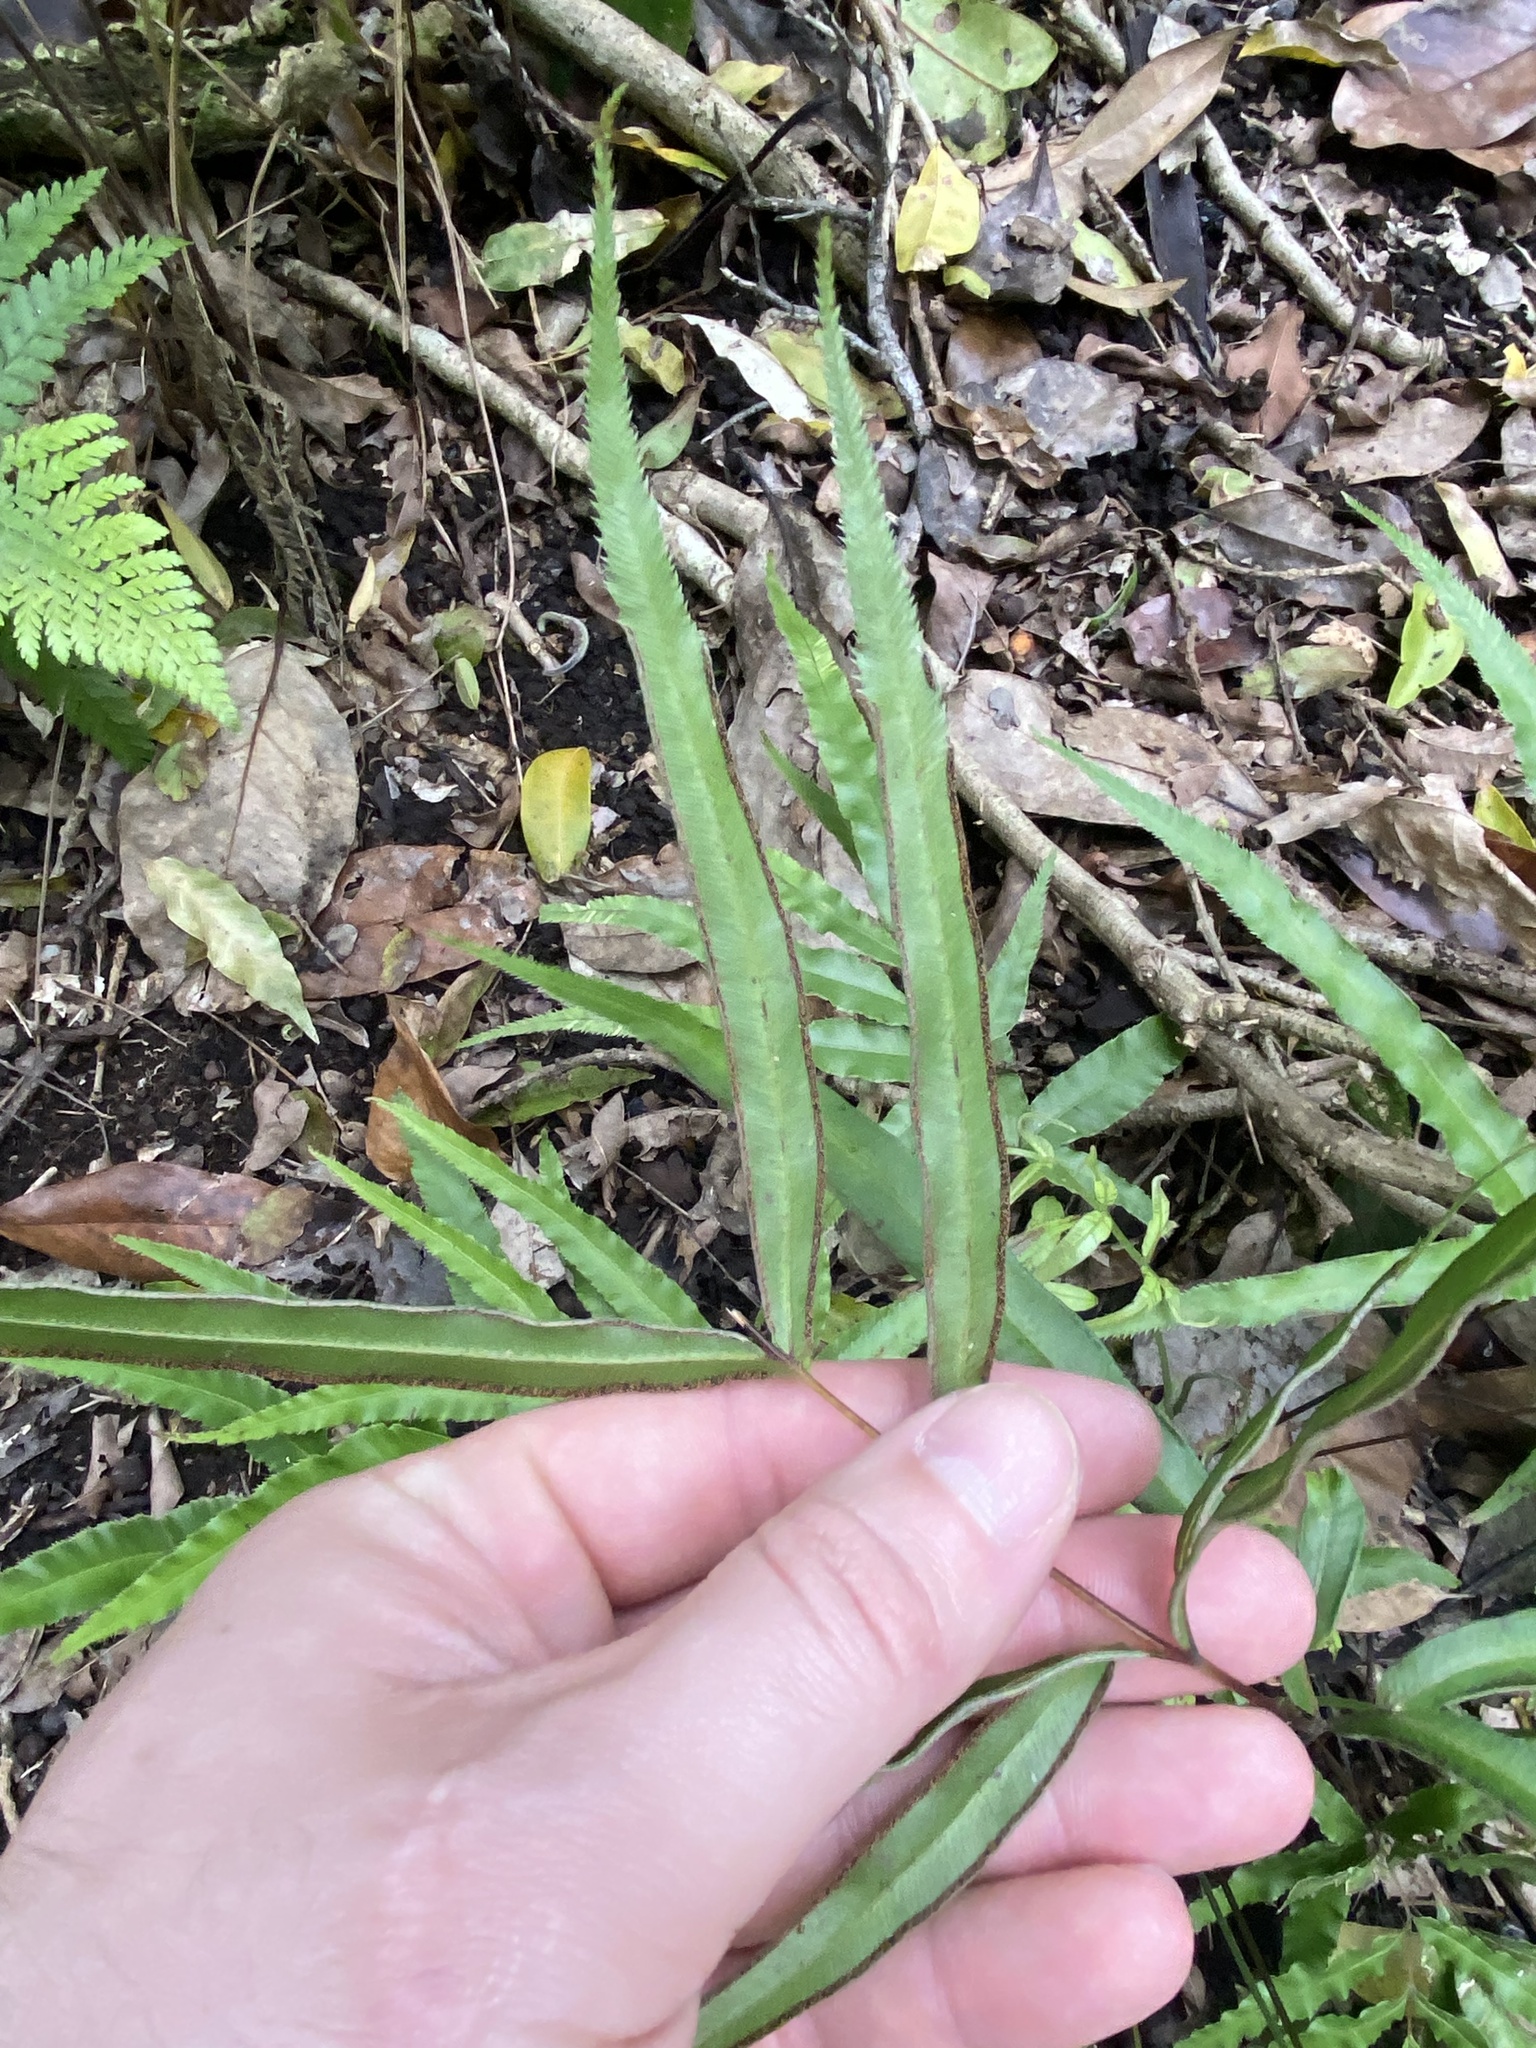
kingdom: Plantae
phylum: Tracheophyta
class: Polypodiopsida
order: Polypodiales
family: Pteridaceae
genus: Pteris
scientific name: Pteris cretica
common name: Ribbon fern
